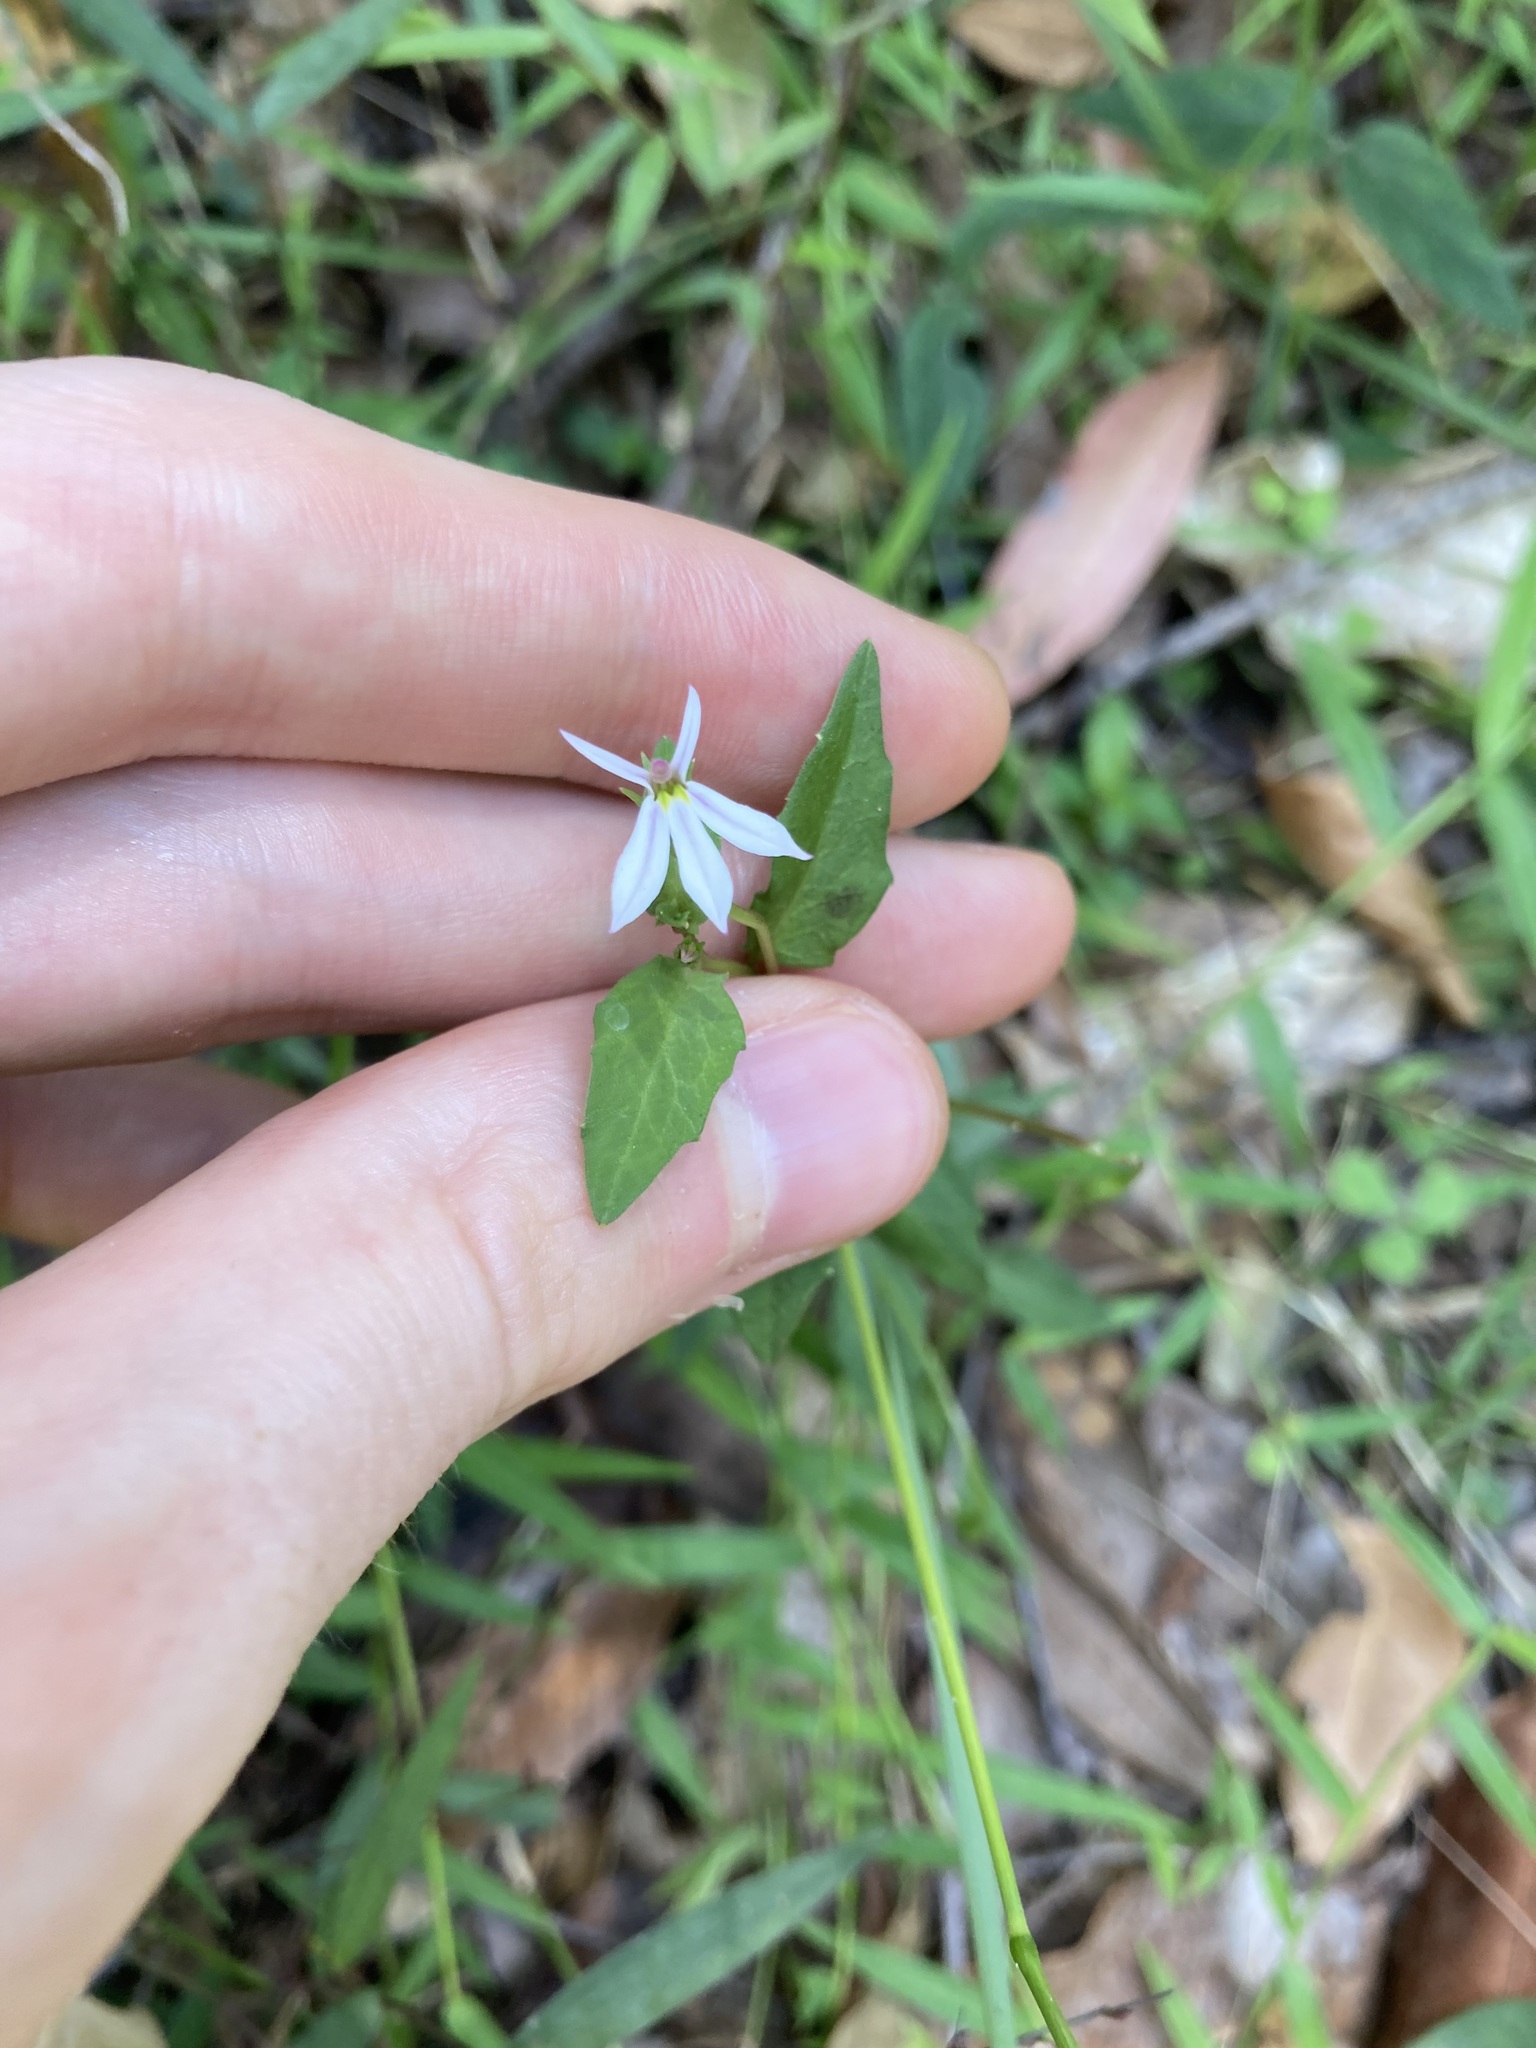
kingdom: Plantae
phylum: Tracheophyta
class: Magnoliopsida
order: Asterales
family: Campanulaceae
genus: Lobelia
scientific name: Lobelia purpurascens
